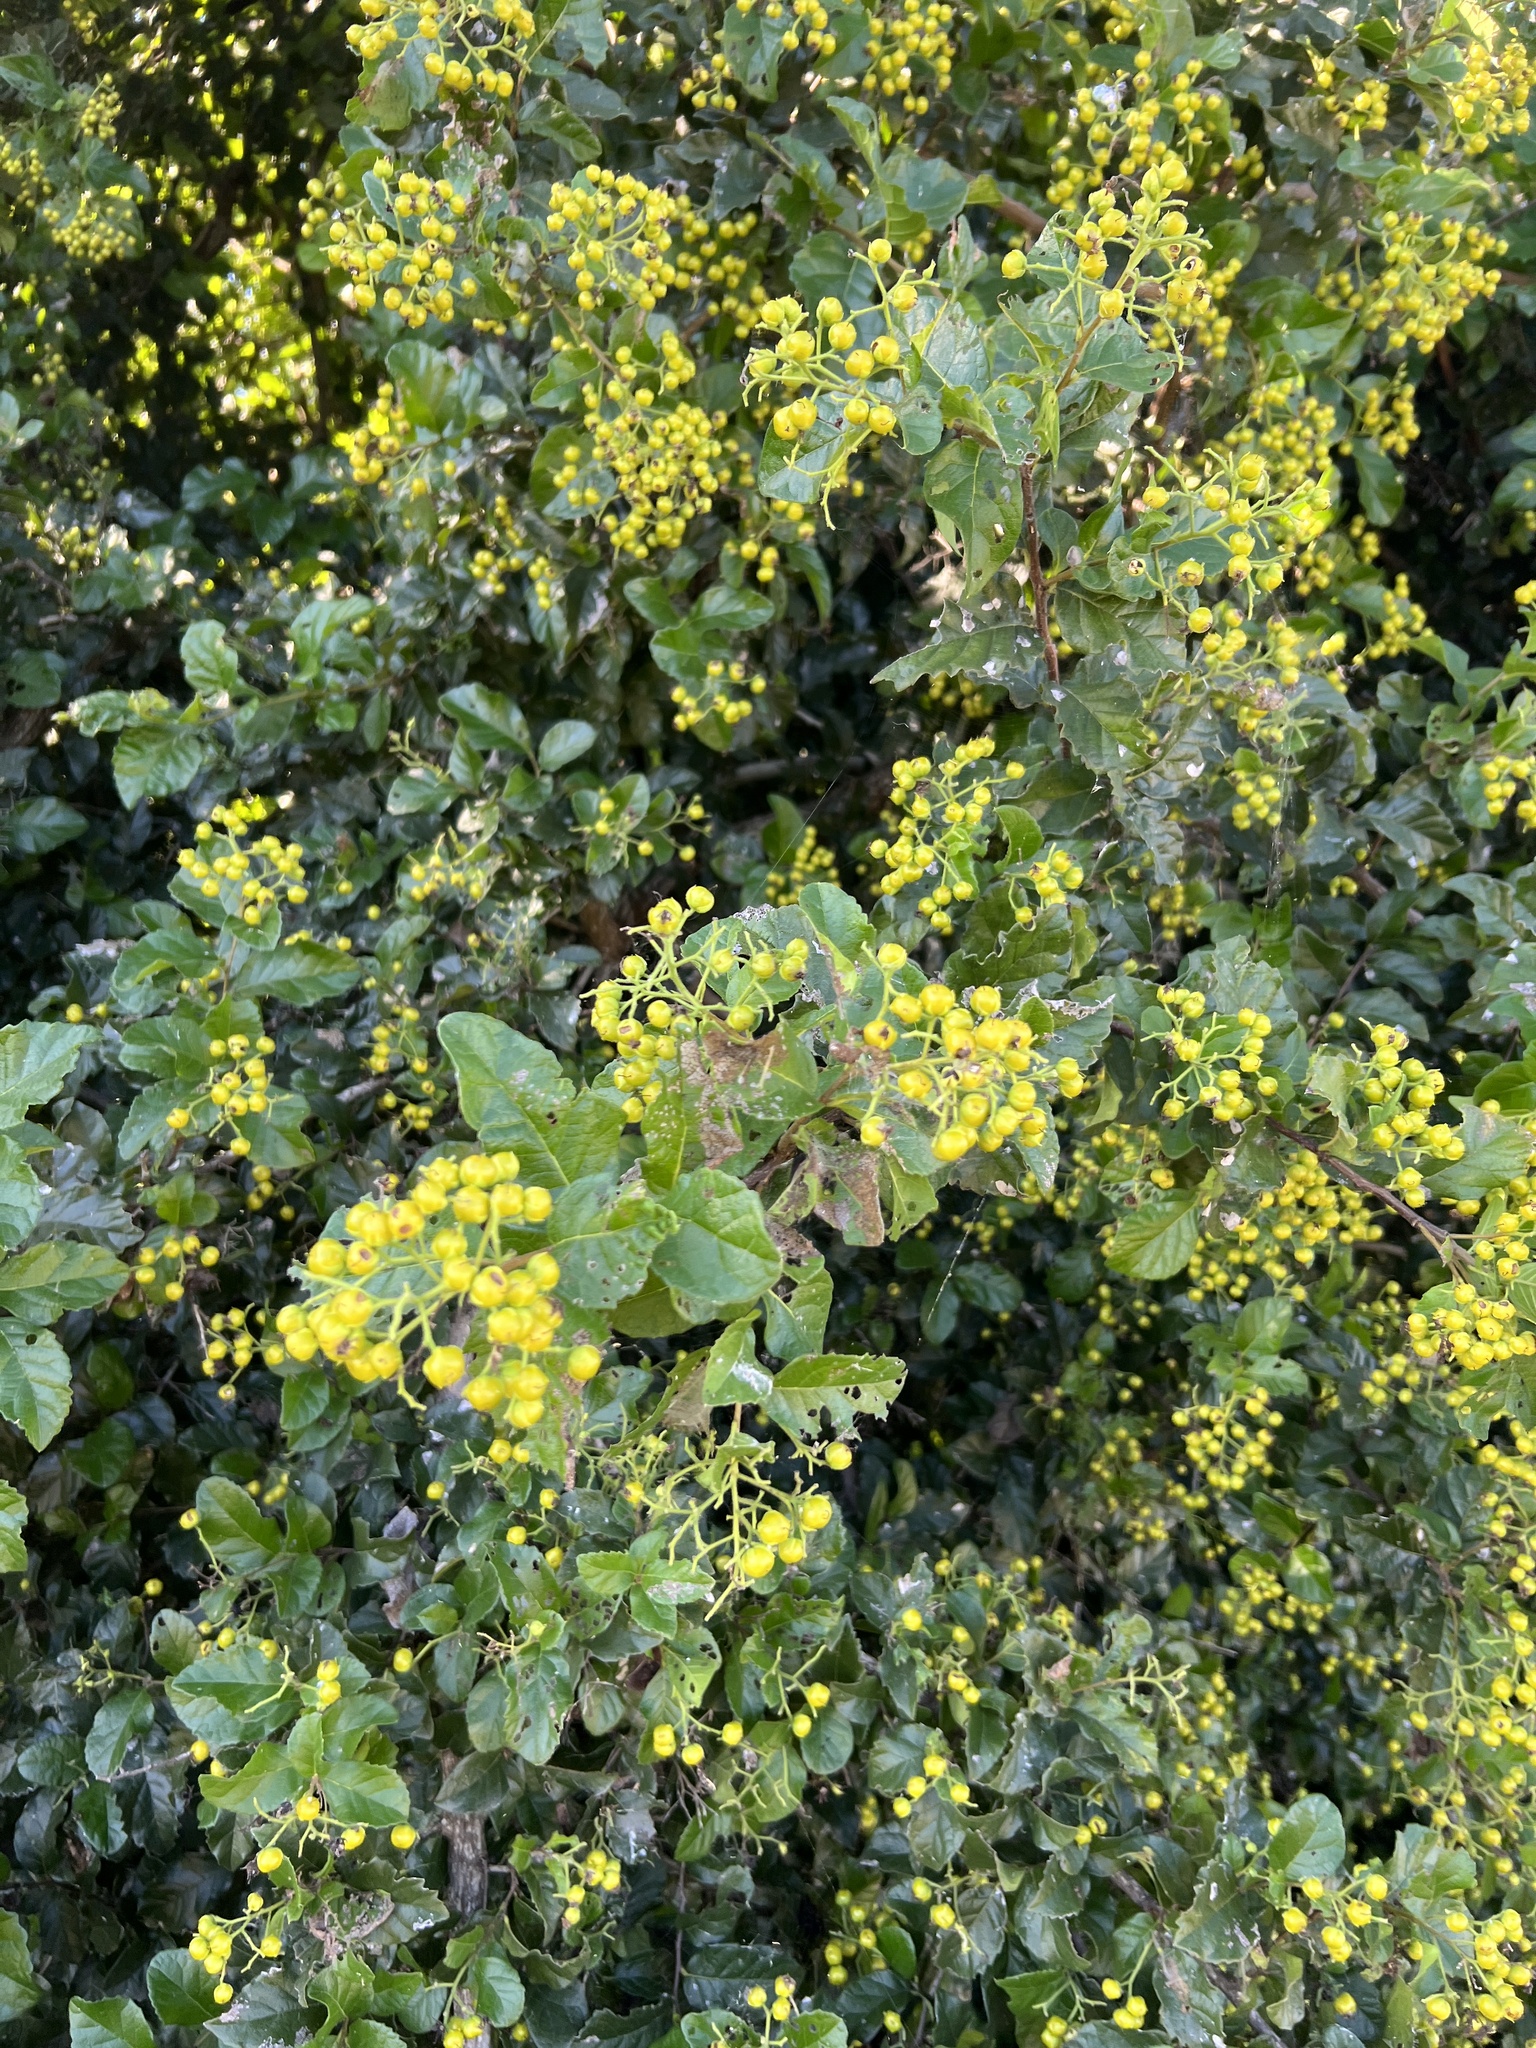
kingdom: Plantae
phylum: Tracheophyta
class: Magnoliopsida
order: Boraginales
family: Ehretiaceae
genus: Ehretia
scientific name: Ehretia anacua
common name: Sugarberry
